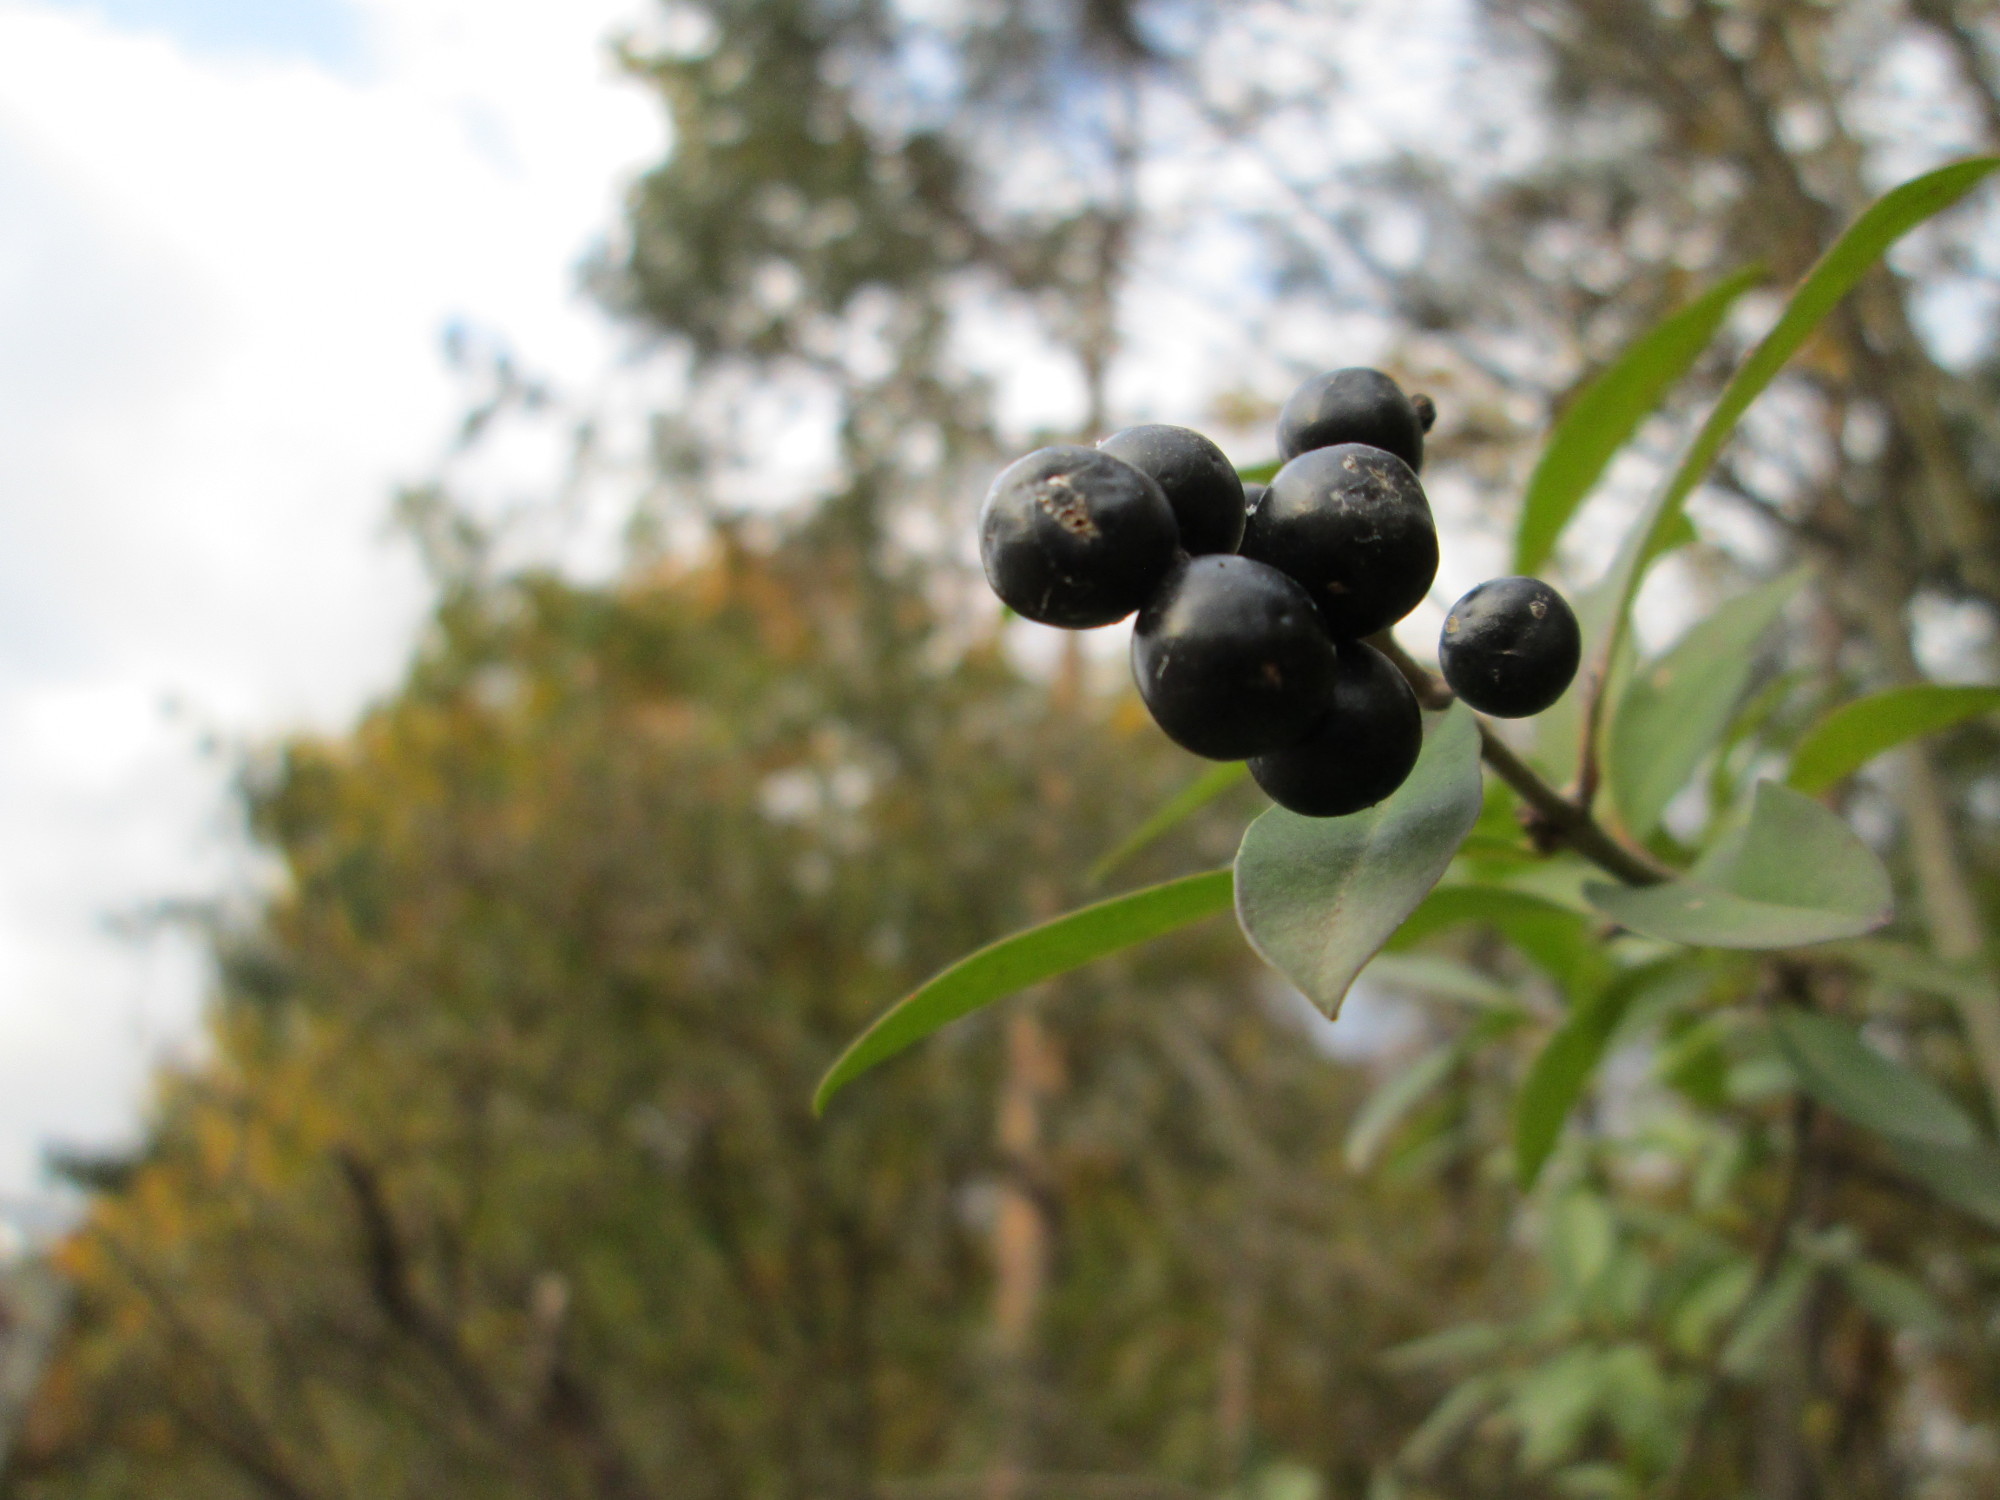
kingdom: Plantae
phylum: Tracheophyta
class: Magnoliopsida
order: Lamiales
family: Oleaceae
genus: Ligustrum
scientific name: Ligustrum vulgare
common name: Wild privet
